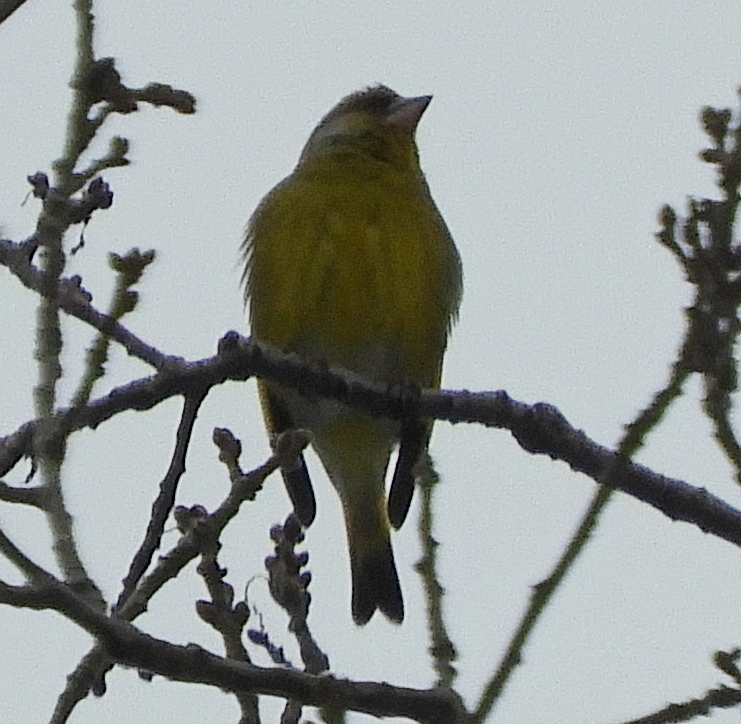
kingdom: Plantae
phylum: Tracheophyta
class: Liliopsida
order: Poales
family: Poaceae
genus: Chloris
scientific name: Chloris chloris
